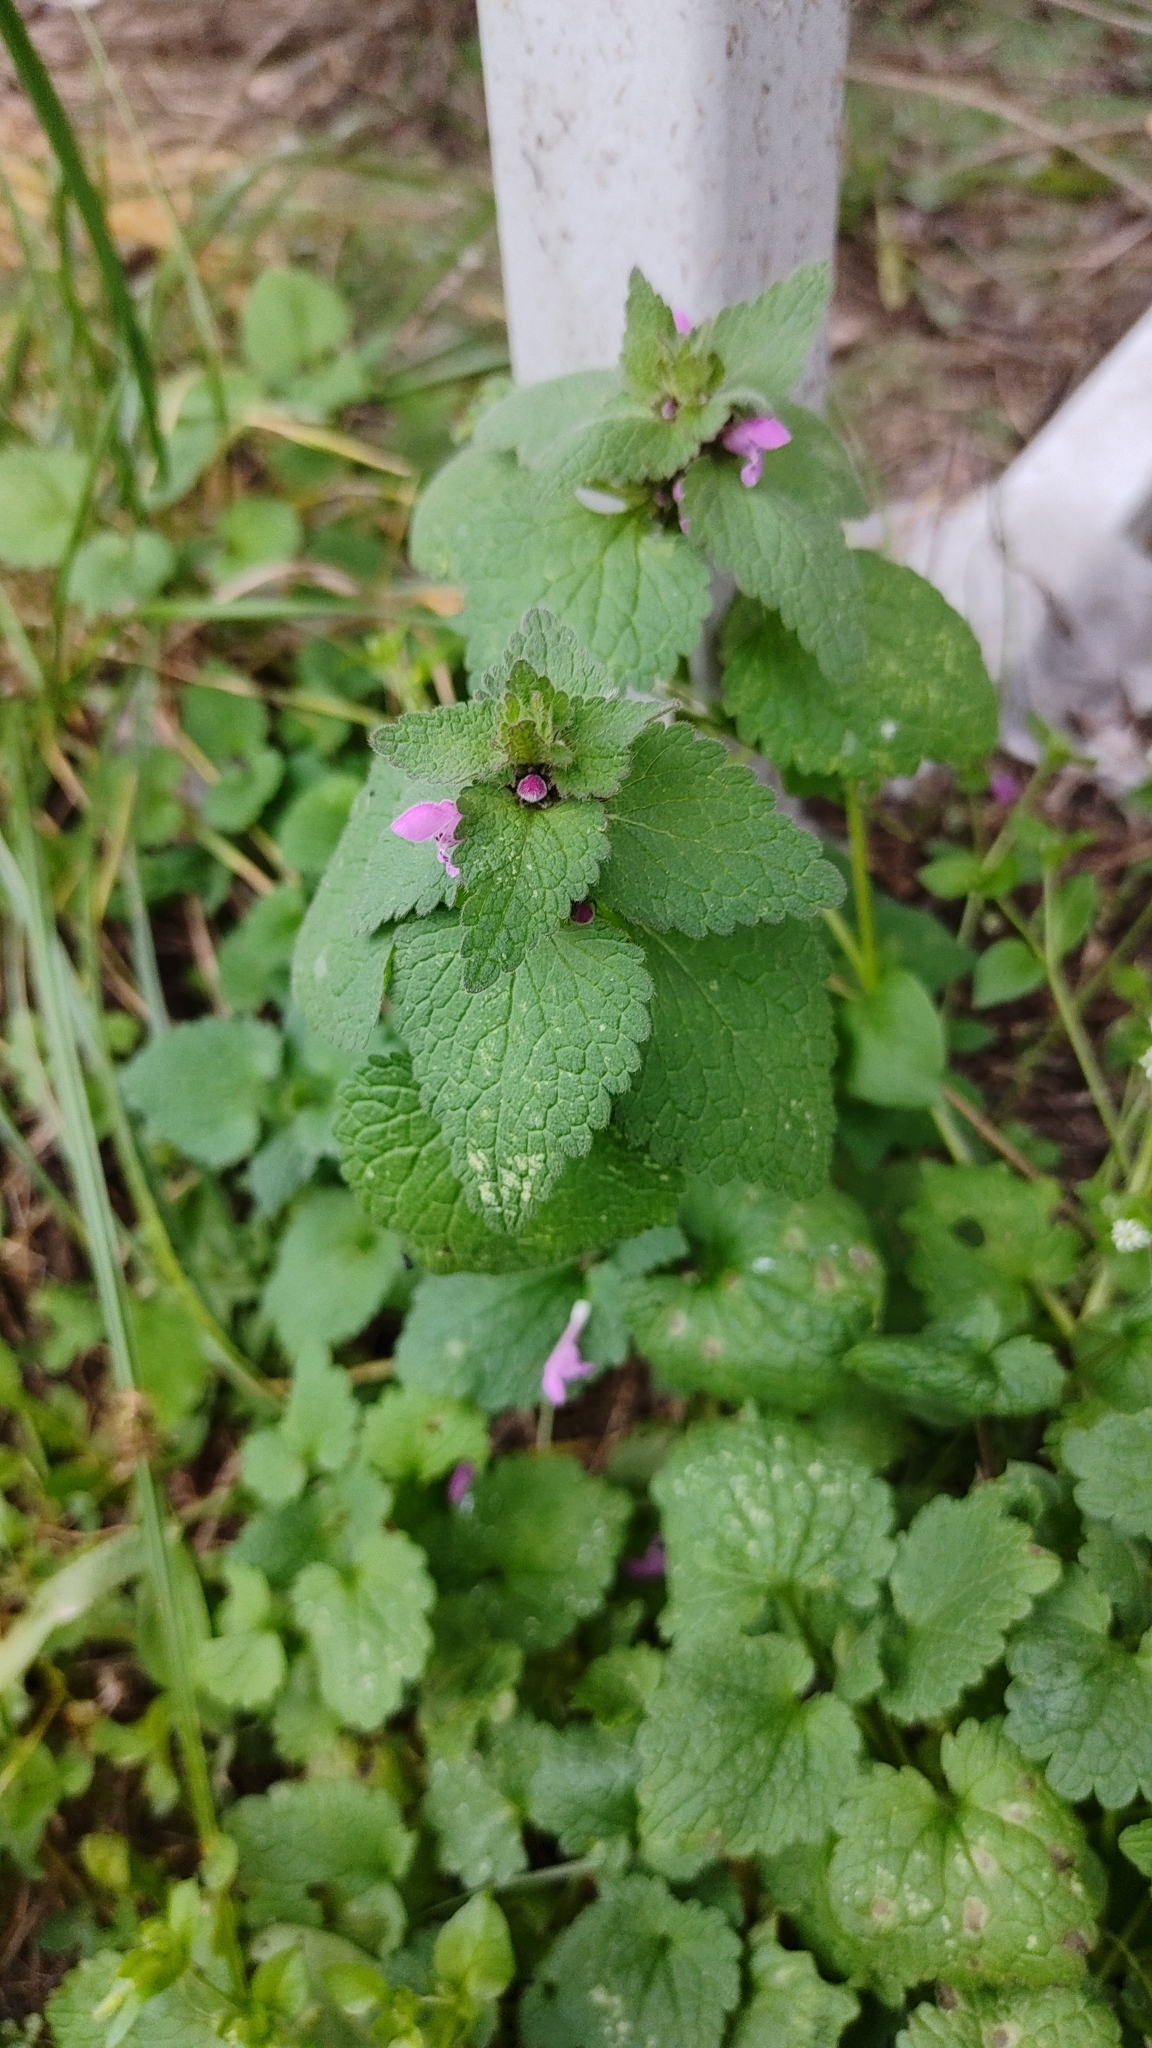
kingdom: Plantae
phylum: Tracheophyta
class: Magnoliopsida
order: Lamiales
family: Lamiaceae
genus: Lamium
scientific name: Lamium purpureum
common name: Red dead-nettle
